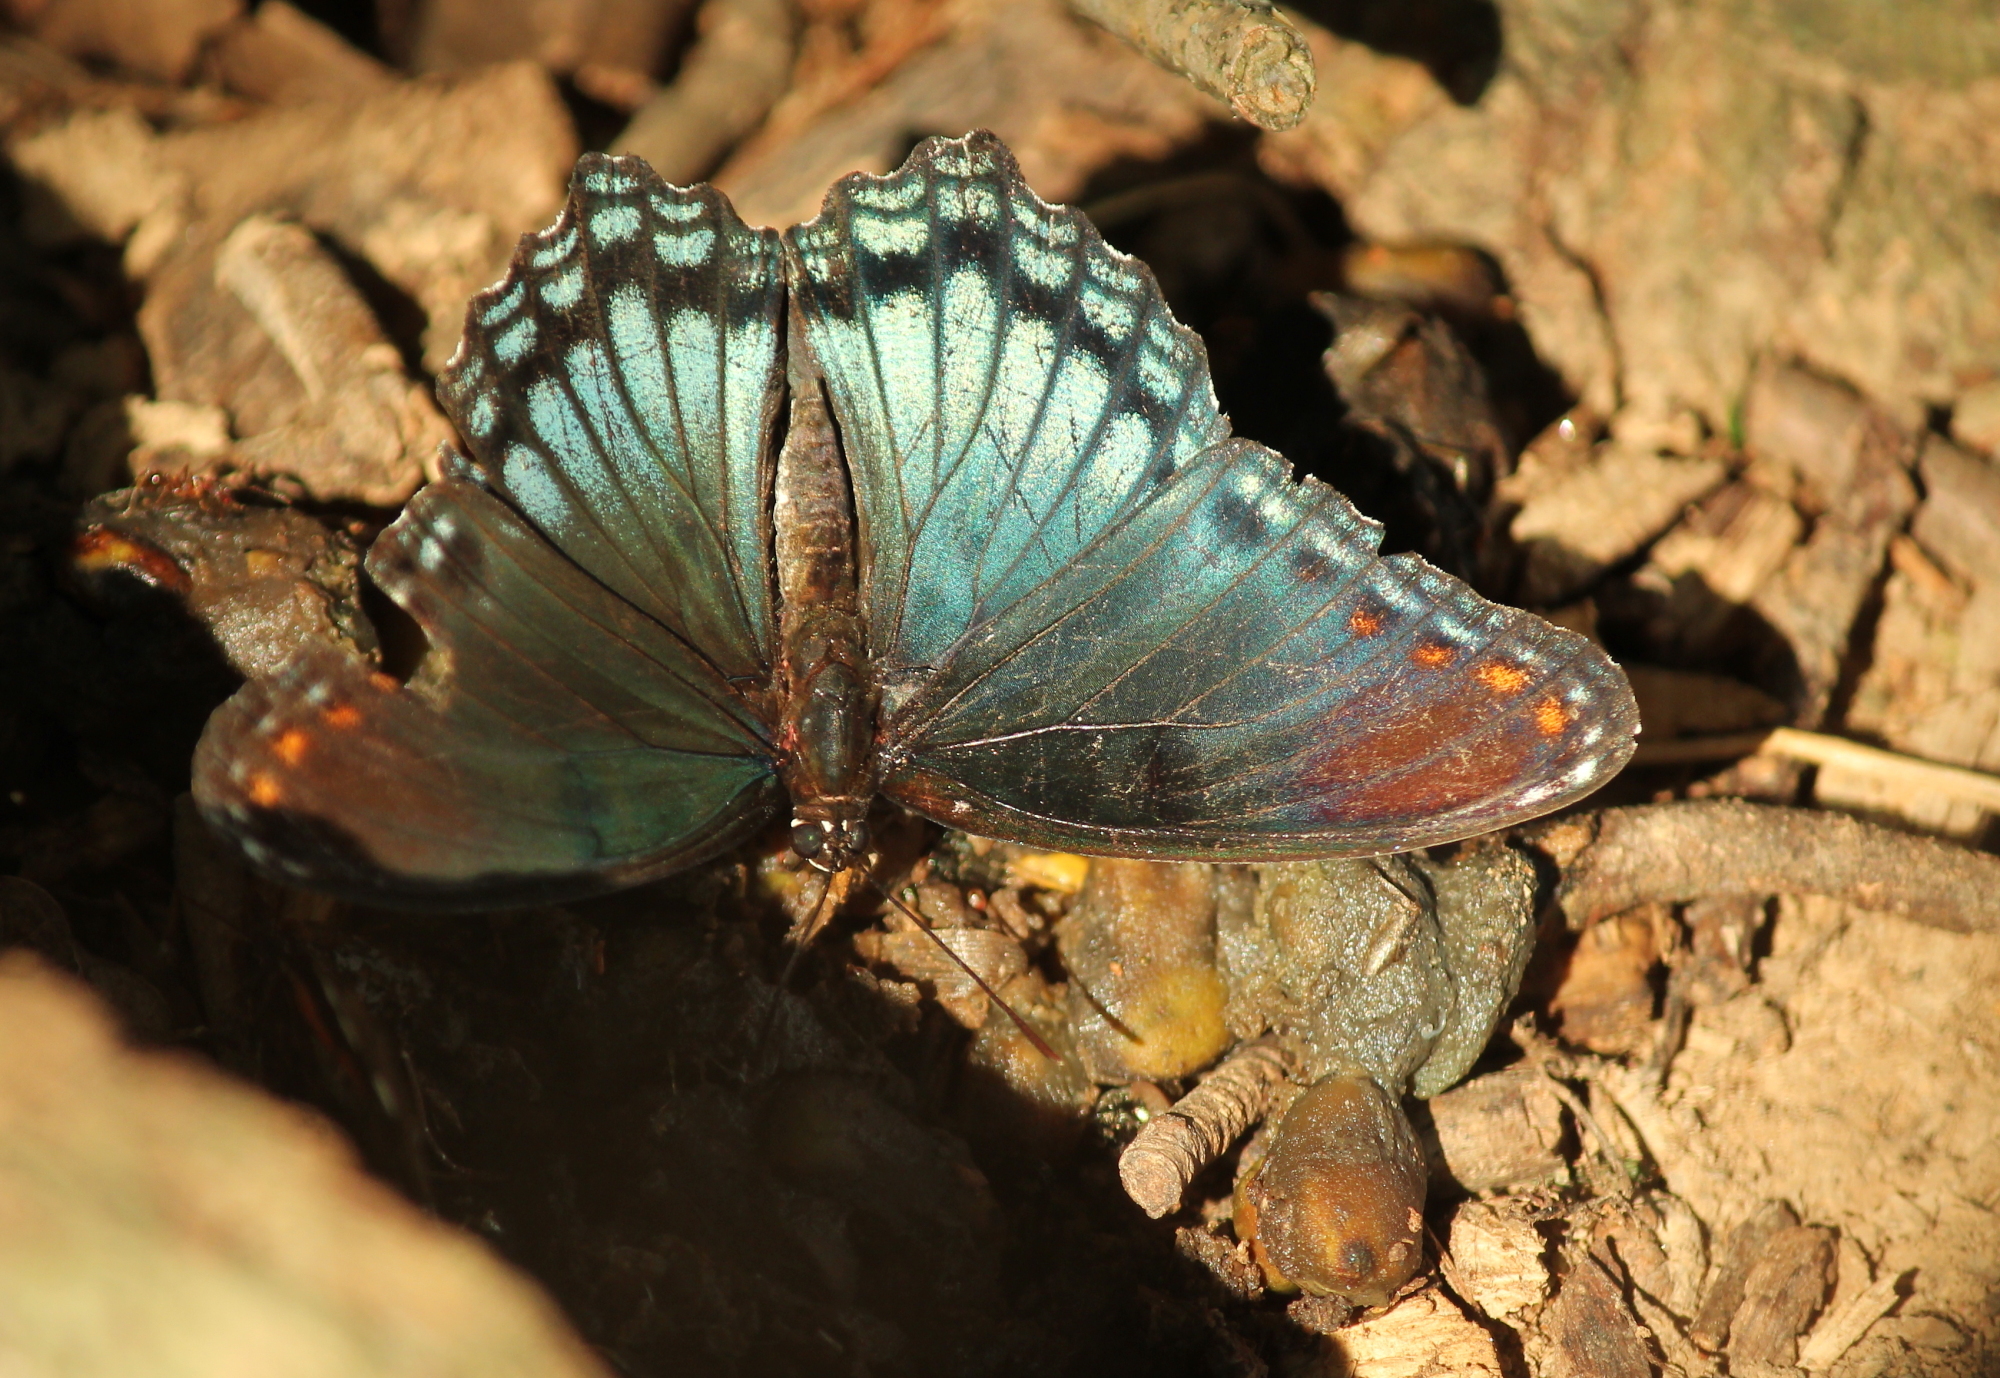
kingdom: Animalia
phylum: Arthropoda
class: Insecta
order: Lepidoptera
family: Nymphalidae
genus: Limenitis
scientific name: Limenitis arthemis
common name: Red-spotted admiral
